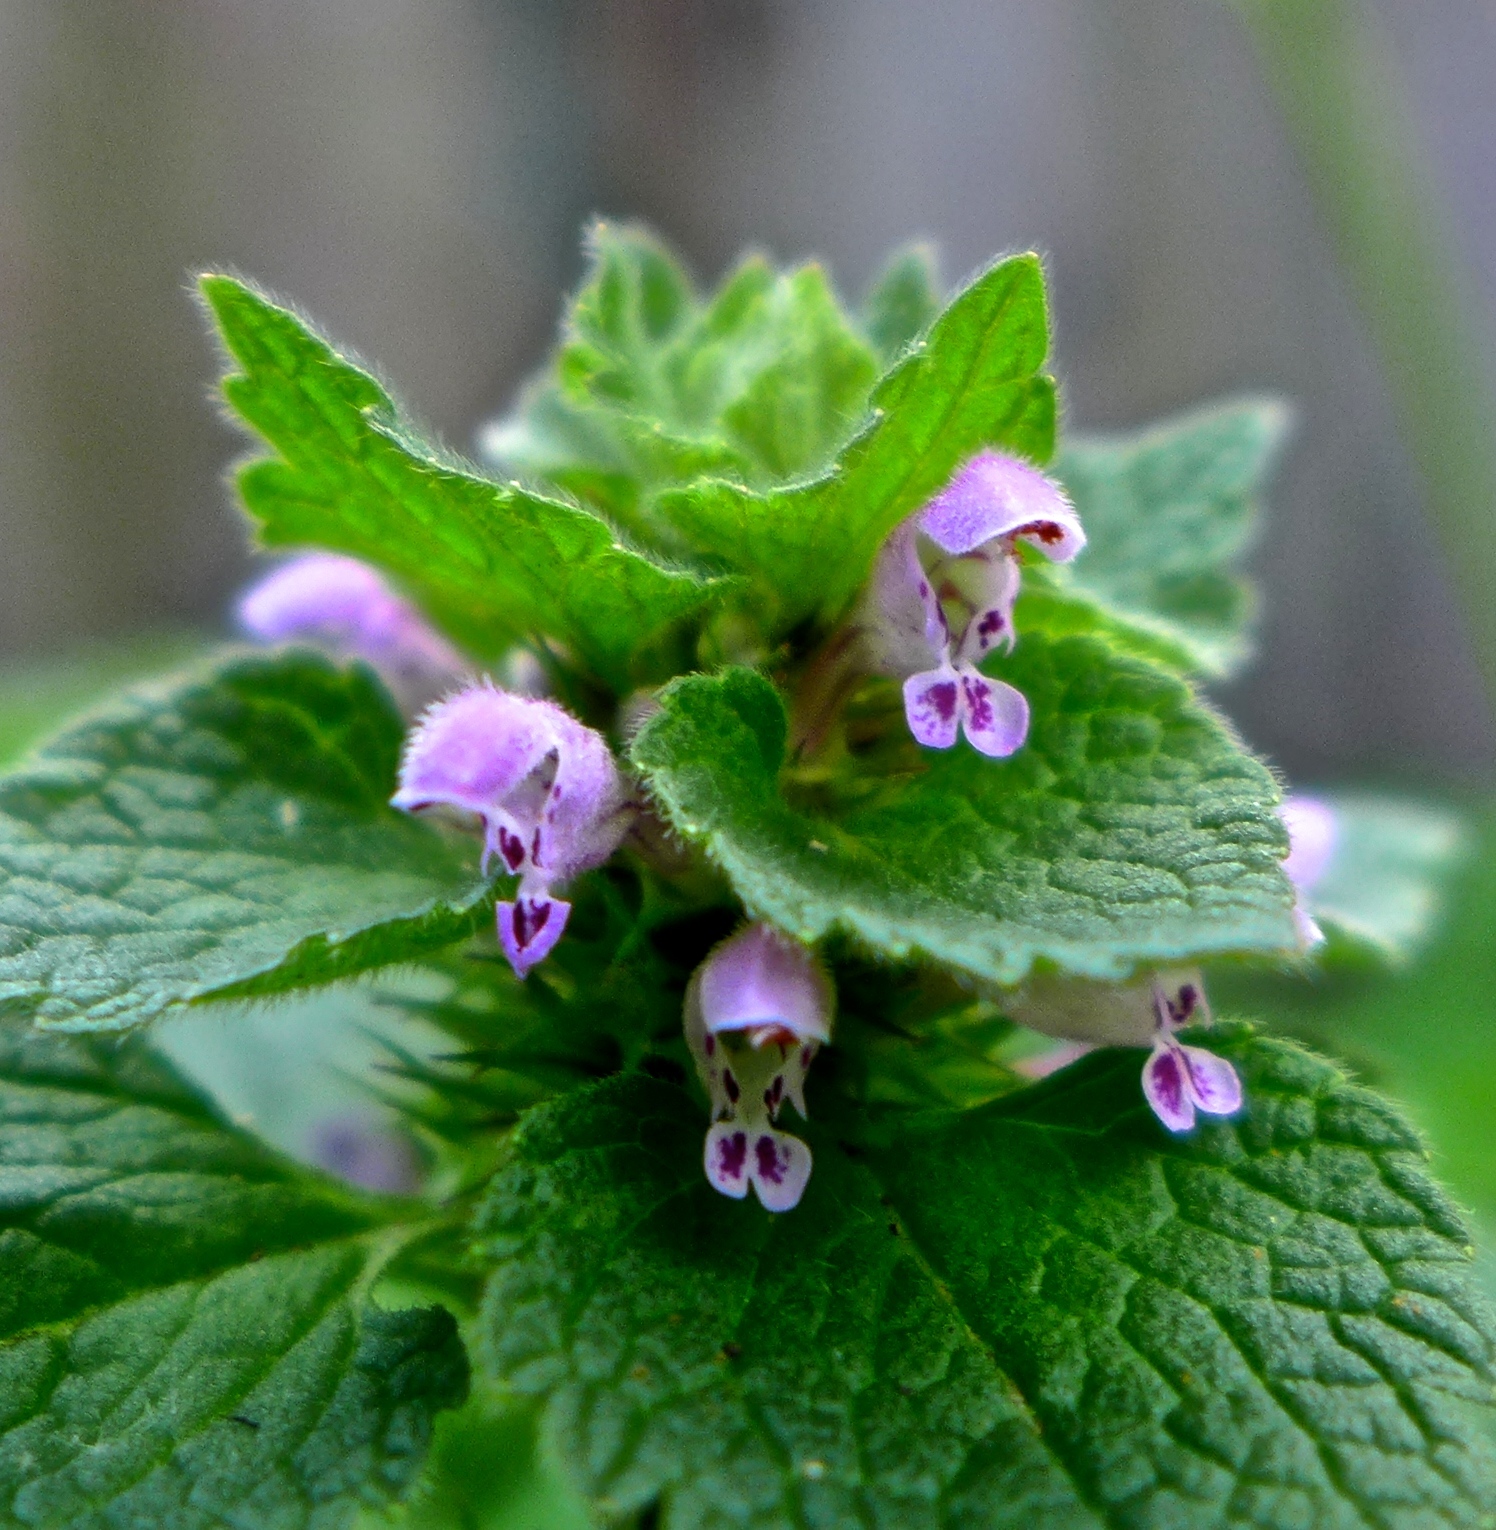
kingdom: Plantae
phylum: Tracheophyta
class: Magnoliopsida
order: Lamiales
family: Lamiaceae
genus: Lamium
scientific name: Lamium purpureum
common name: Red dead-nettle
